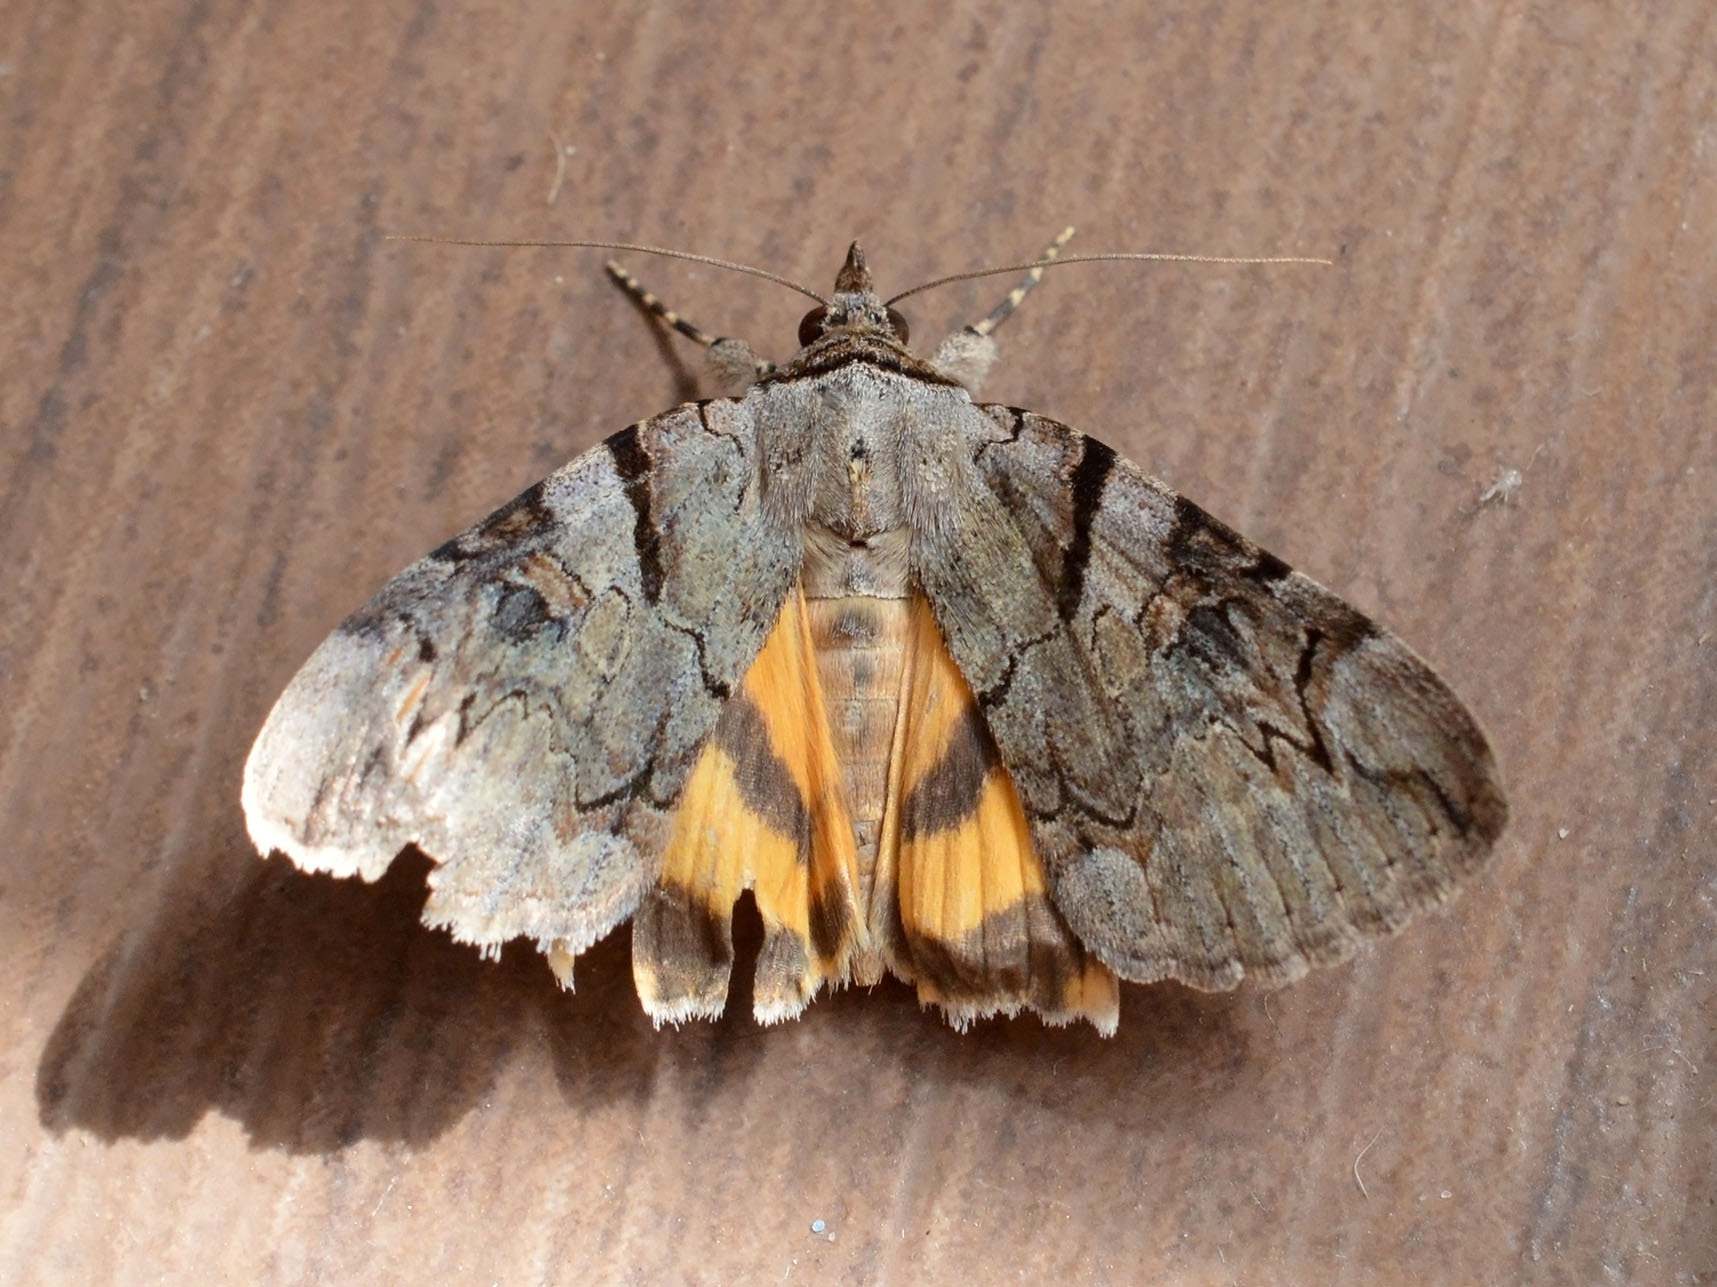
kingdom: Animalia
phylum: Arthropoda
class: Insecta
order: Lepidoptera
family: Erebidae
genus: Catocala
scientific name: Catocala hymenaea
